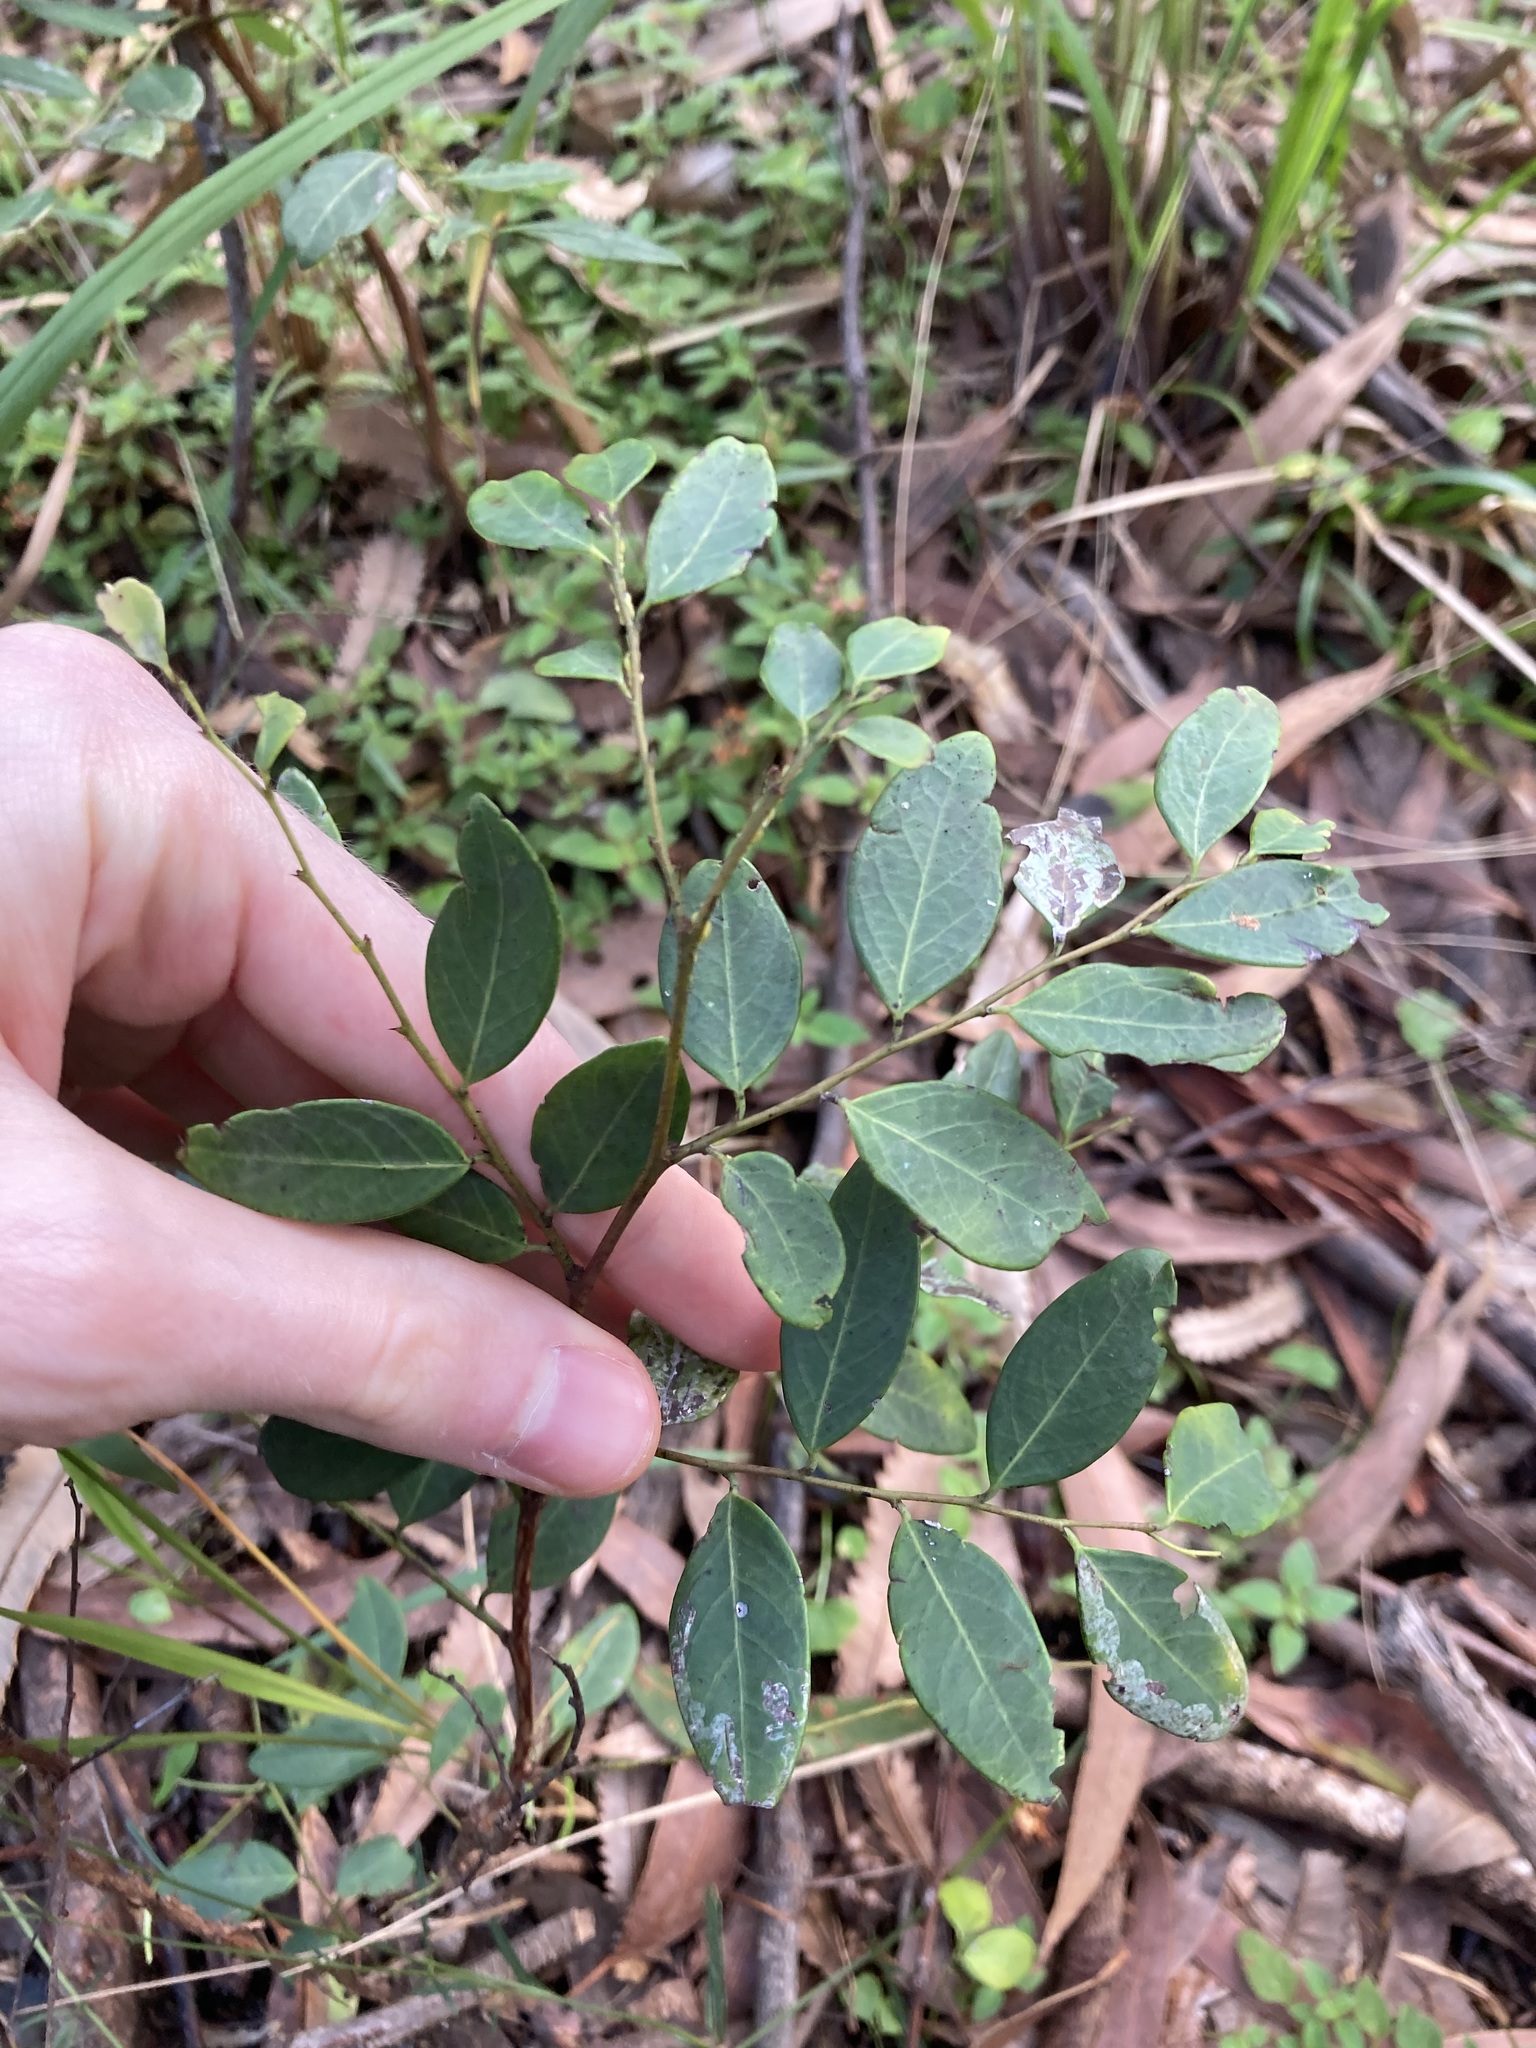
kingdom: Plantae
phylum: Tracheophyta
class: Magnoliopsida
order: Malpighiales
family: Phyllanthaceae
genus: Breynia
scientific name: Breynia oblongifolia
